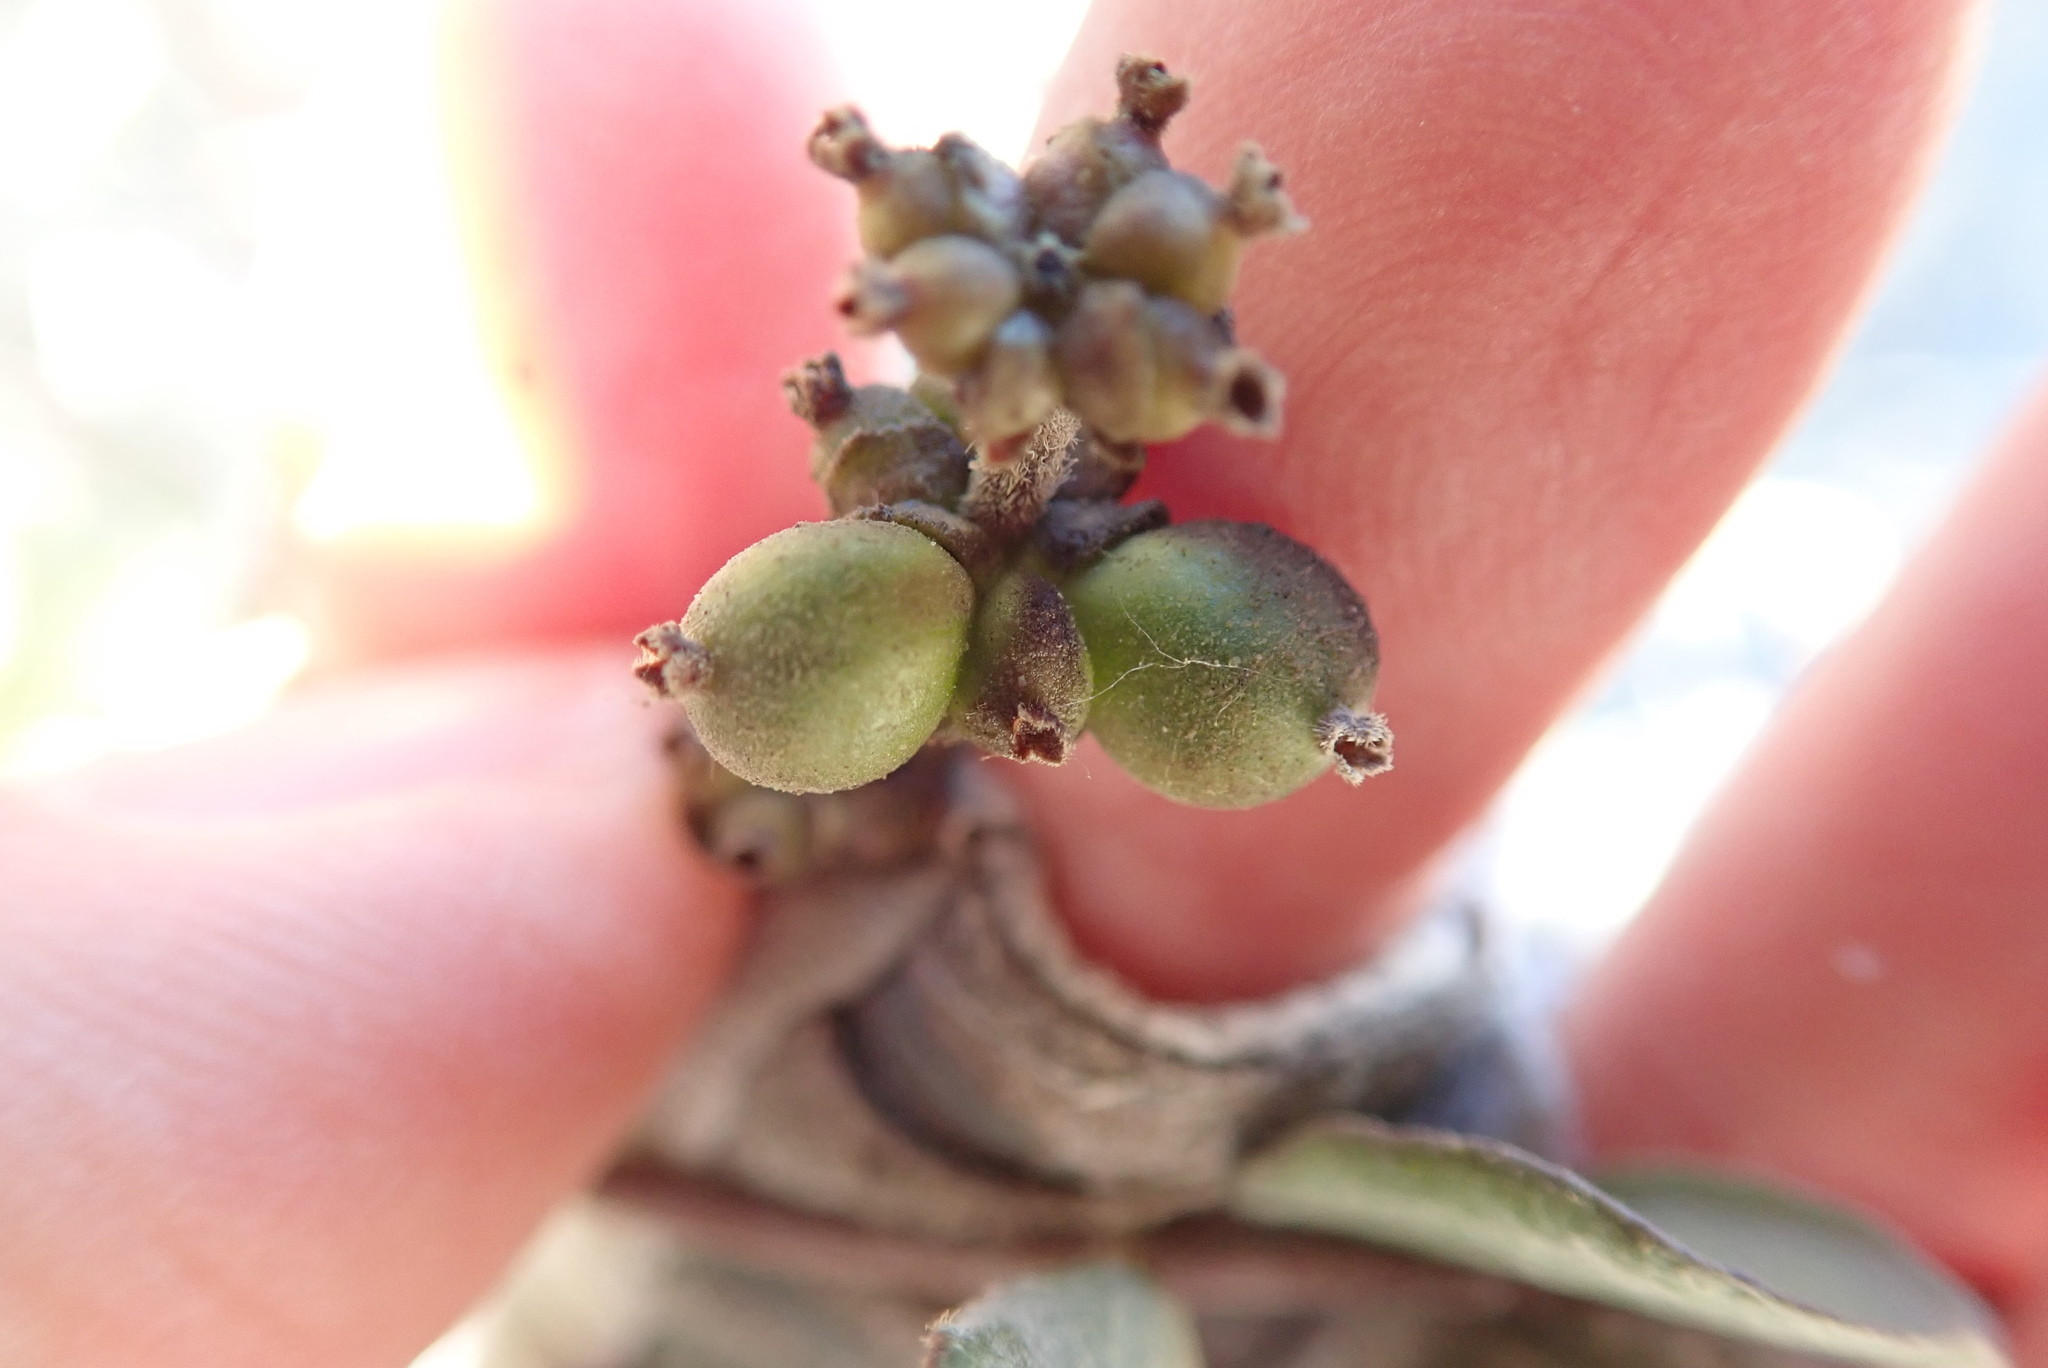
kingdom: Plantae
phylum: Tracheophyta
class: Magnoliopsida
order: Dipsacales
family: Caprifoliaceae
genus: Lonicera
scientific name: Lonicera subspicata
